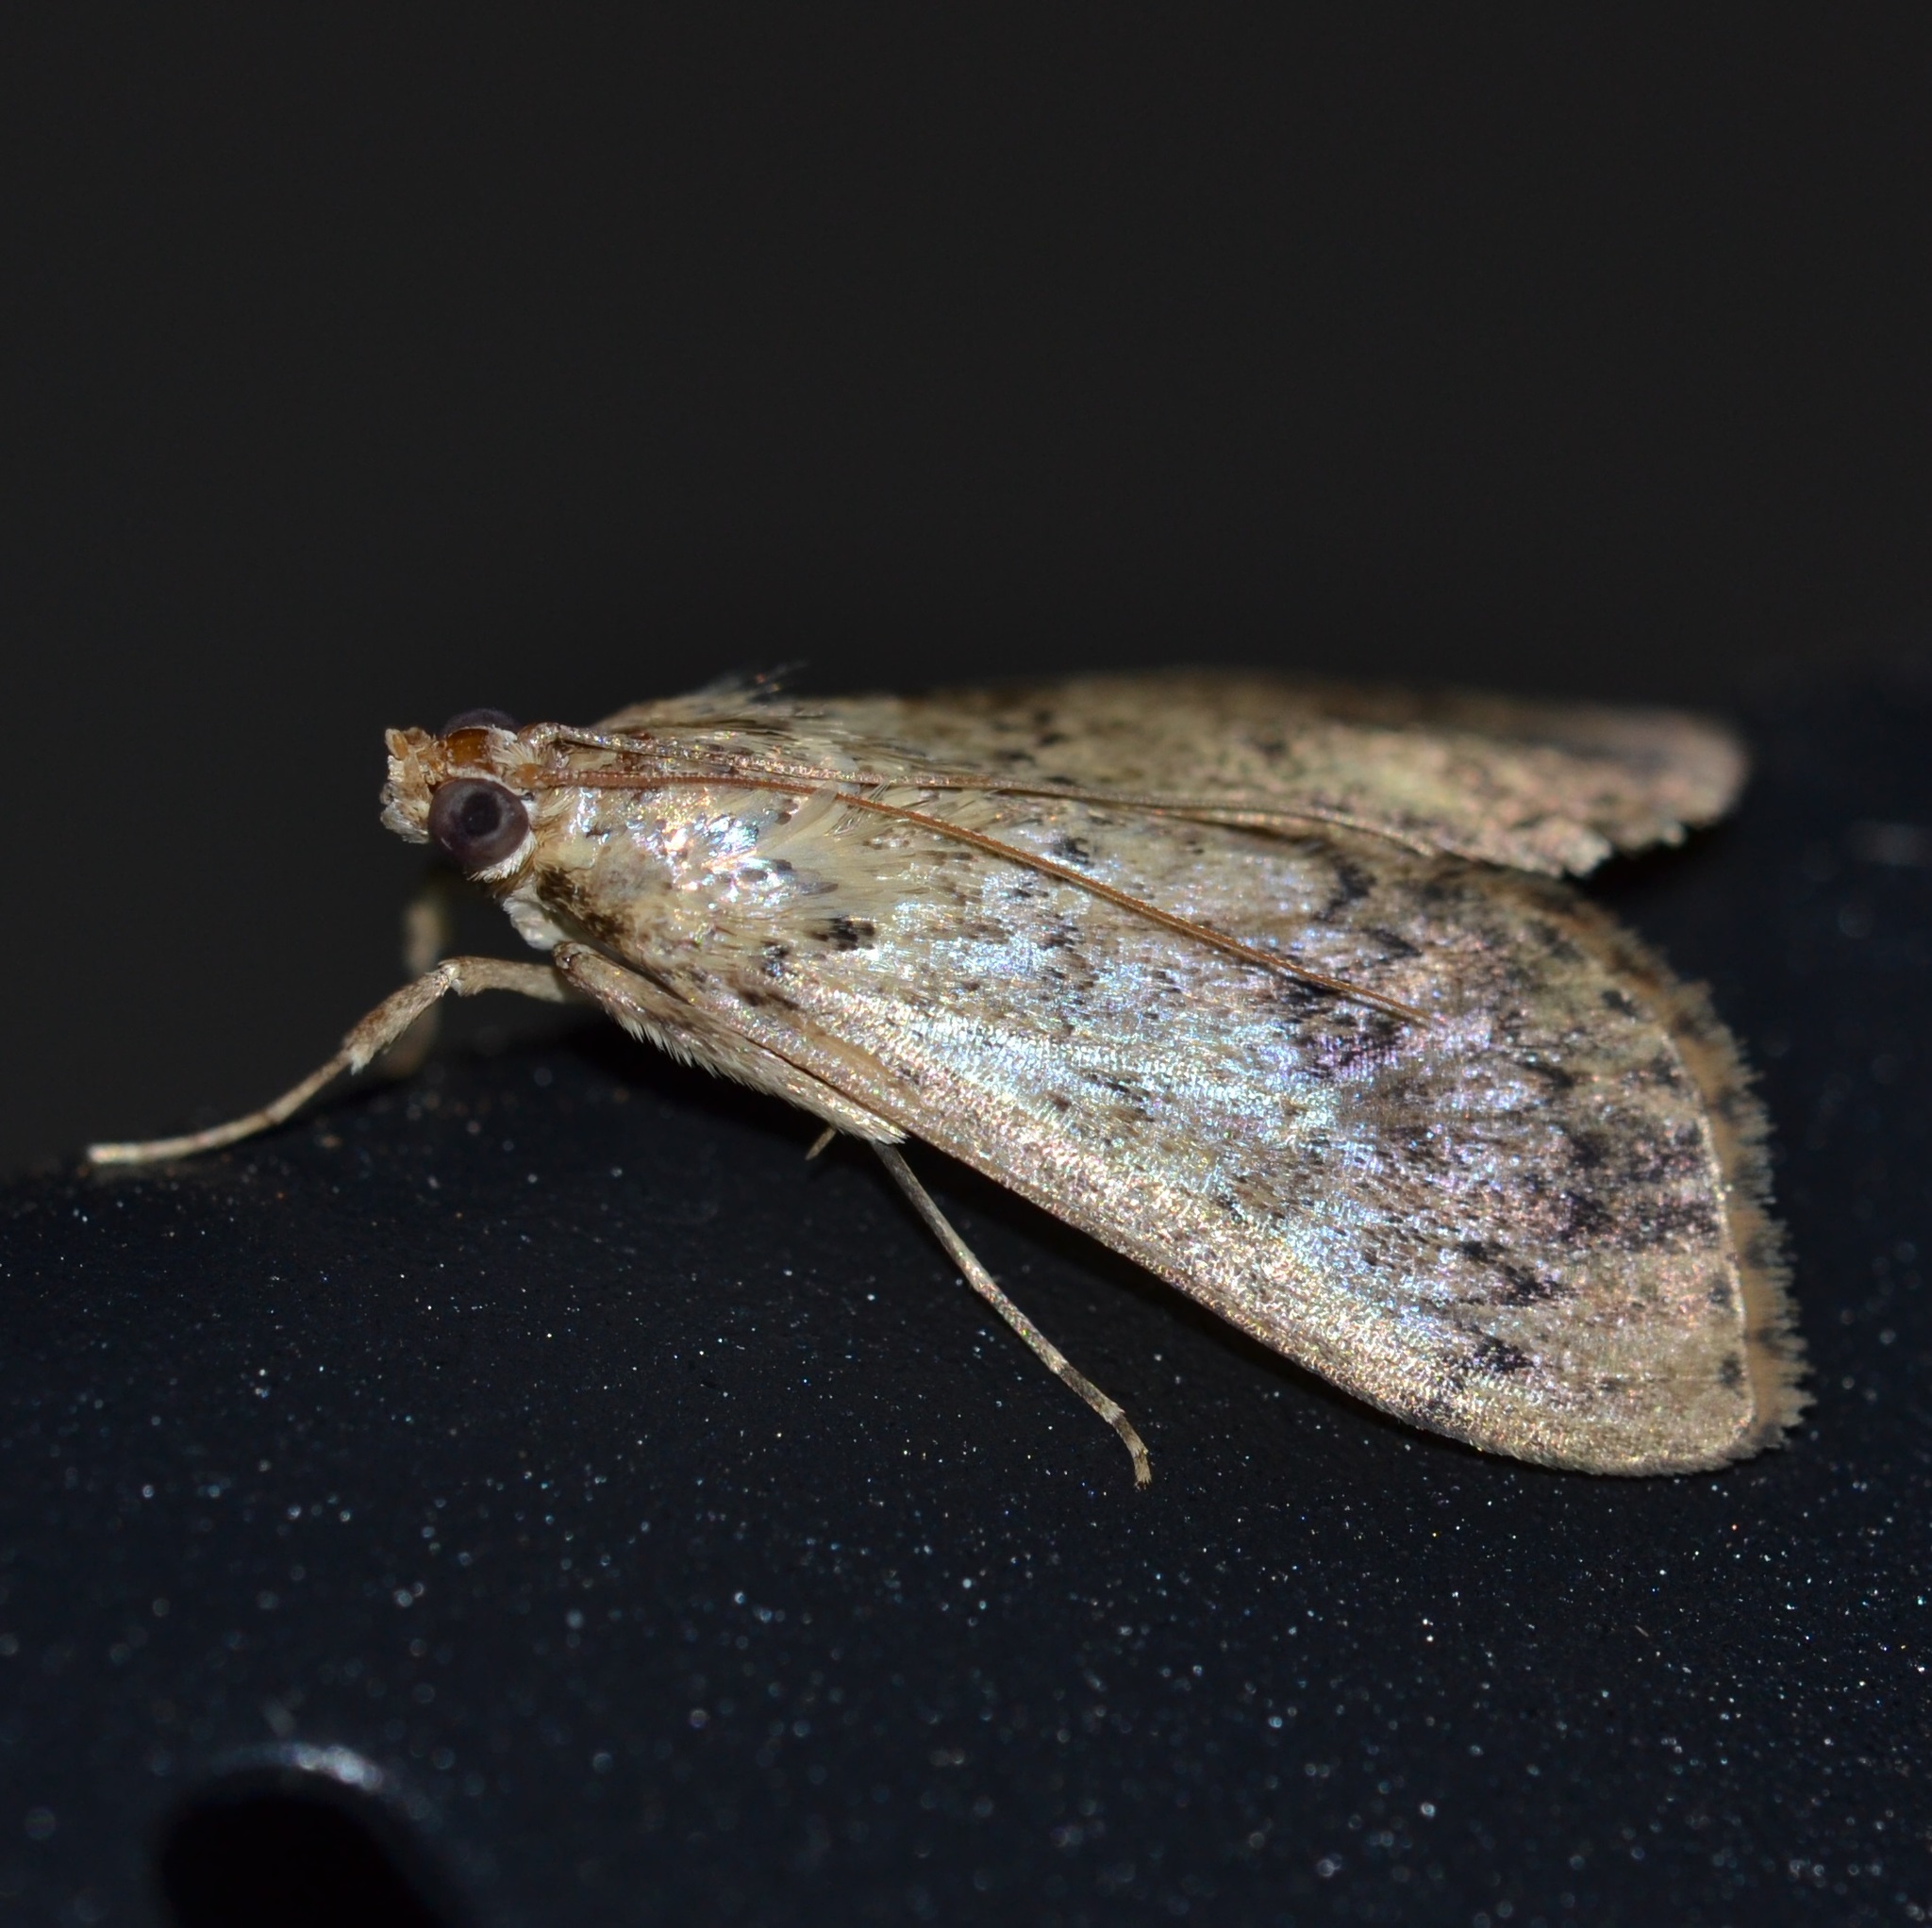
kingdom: Animalia
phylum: Arthropoda
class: Insecta
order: Lepidoptera
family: Crambidae
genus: Asciodes
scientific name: Asciodes gordialis
